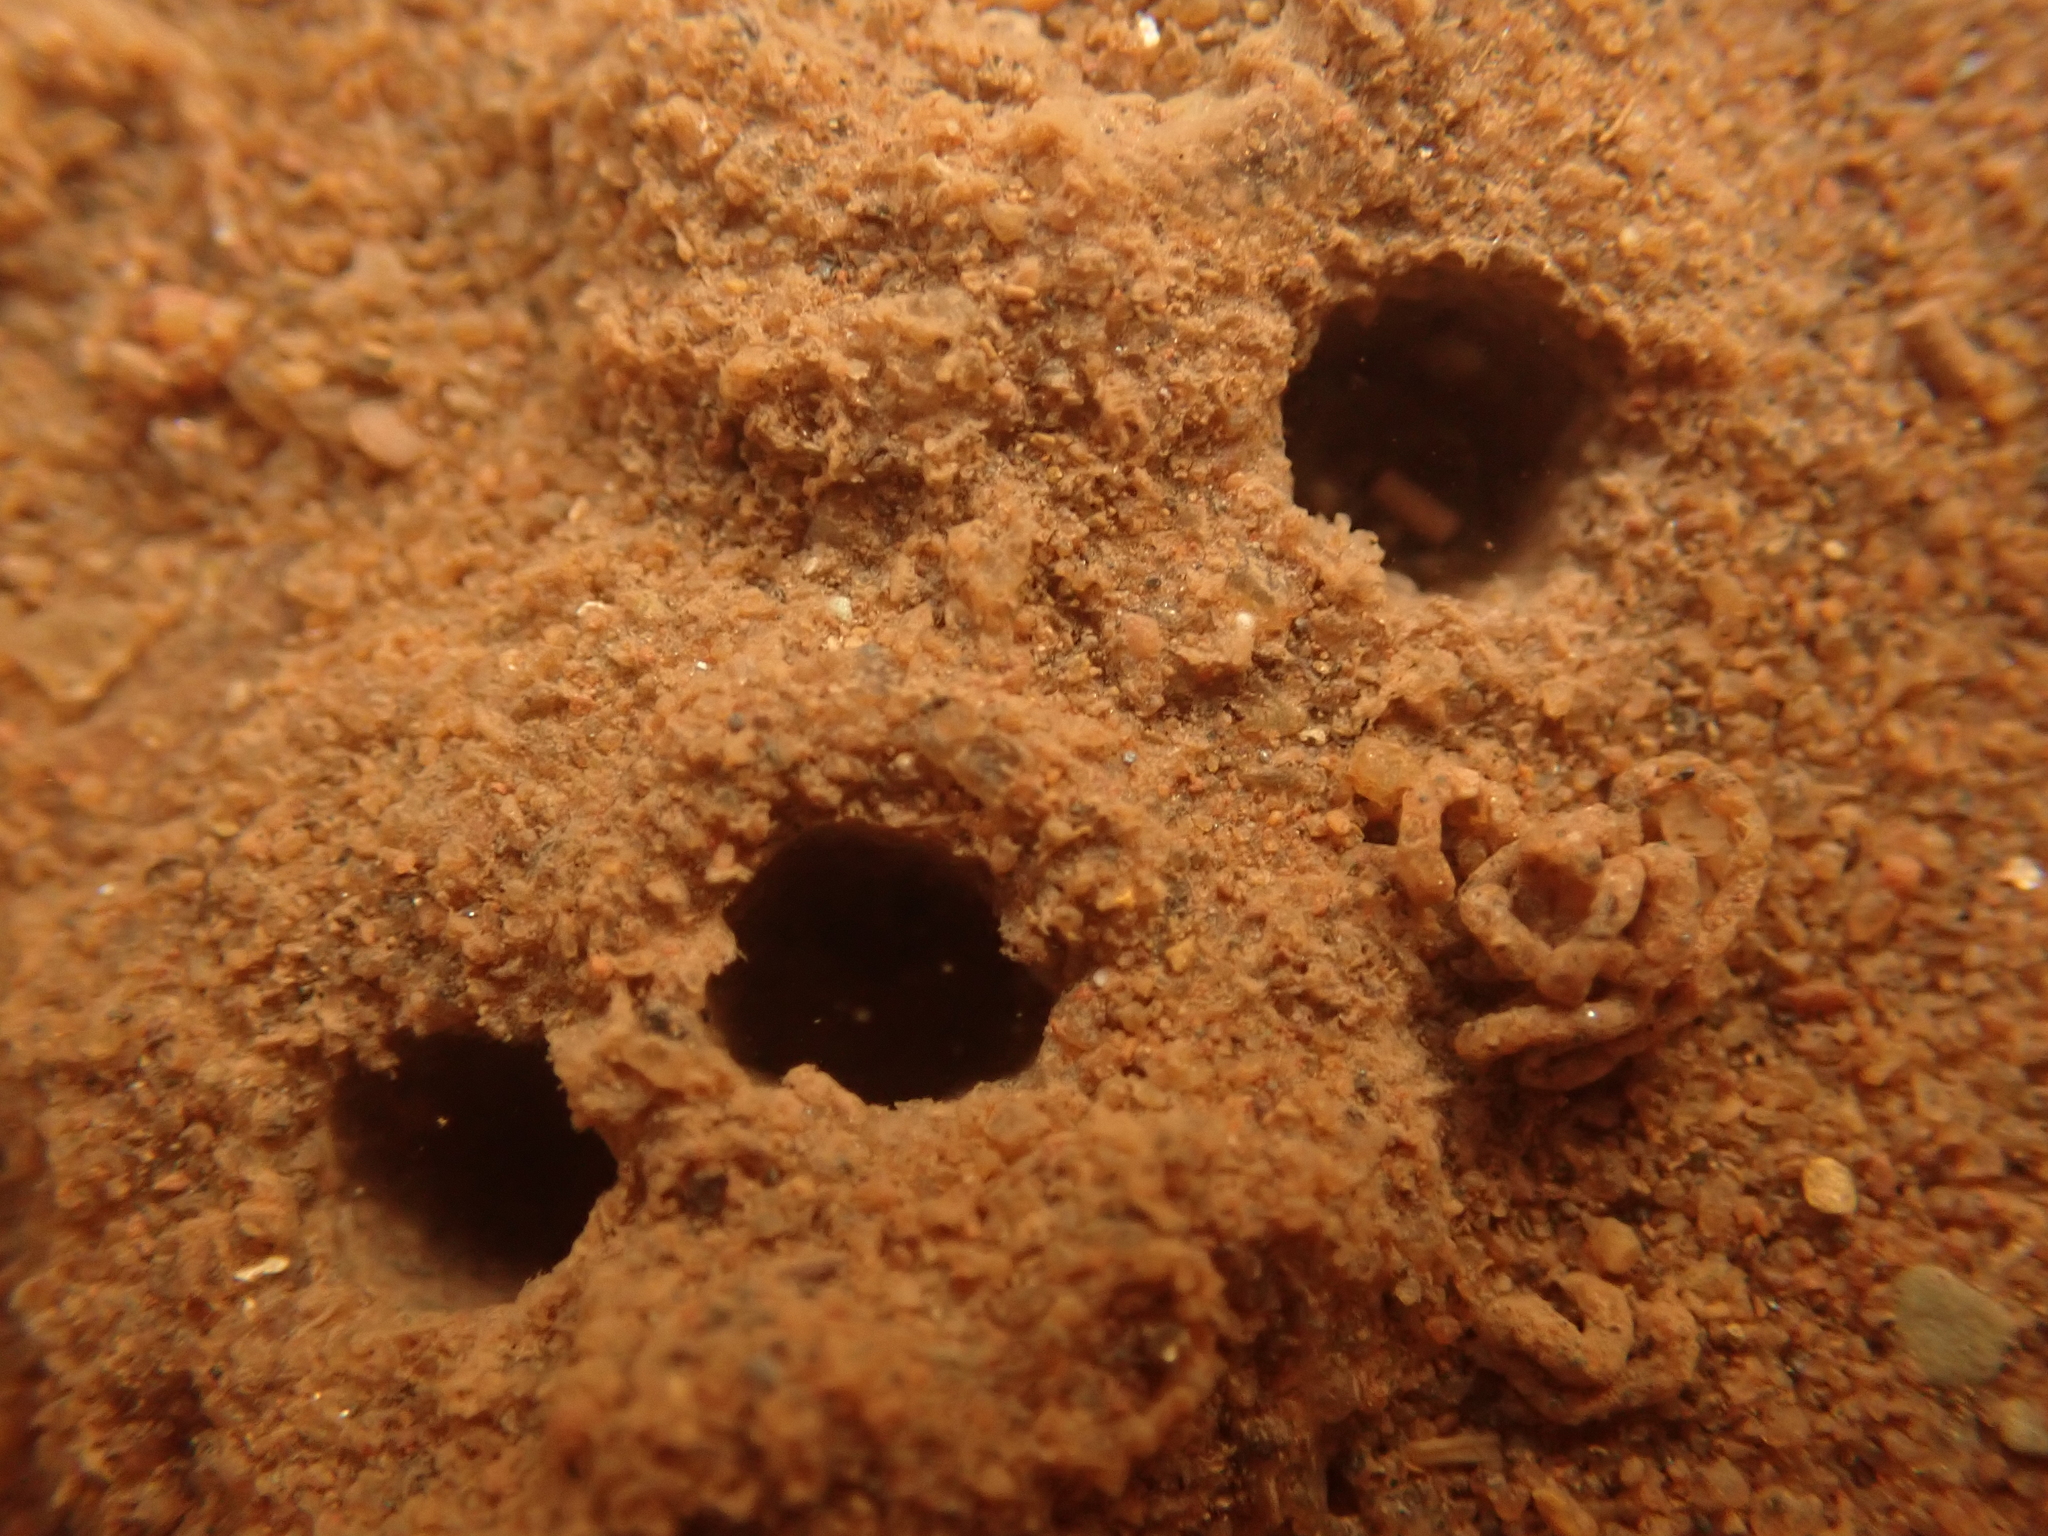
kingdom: Animalia
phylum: Mollusca
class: Bivalvia
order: Venerida
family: Veneridae
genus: Petricolaria
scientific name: Petricolaria pholadiformis
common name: American piddock
